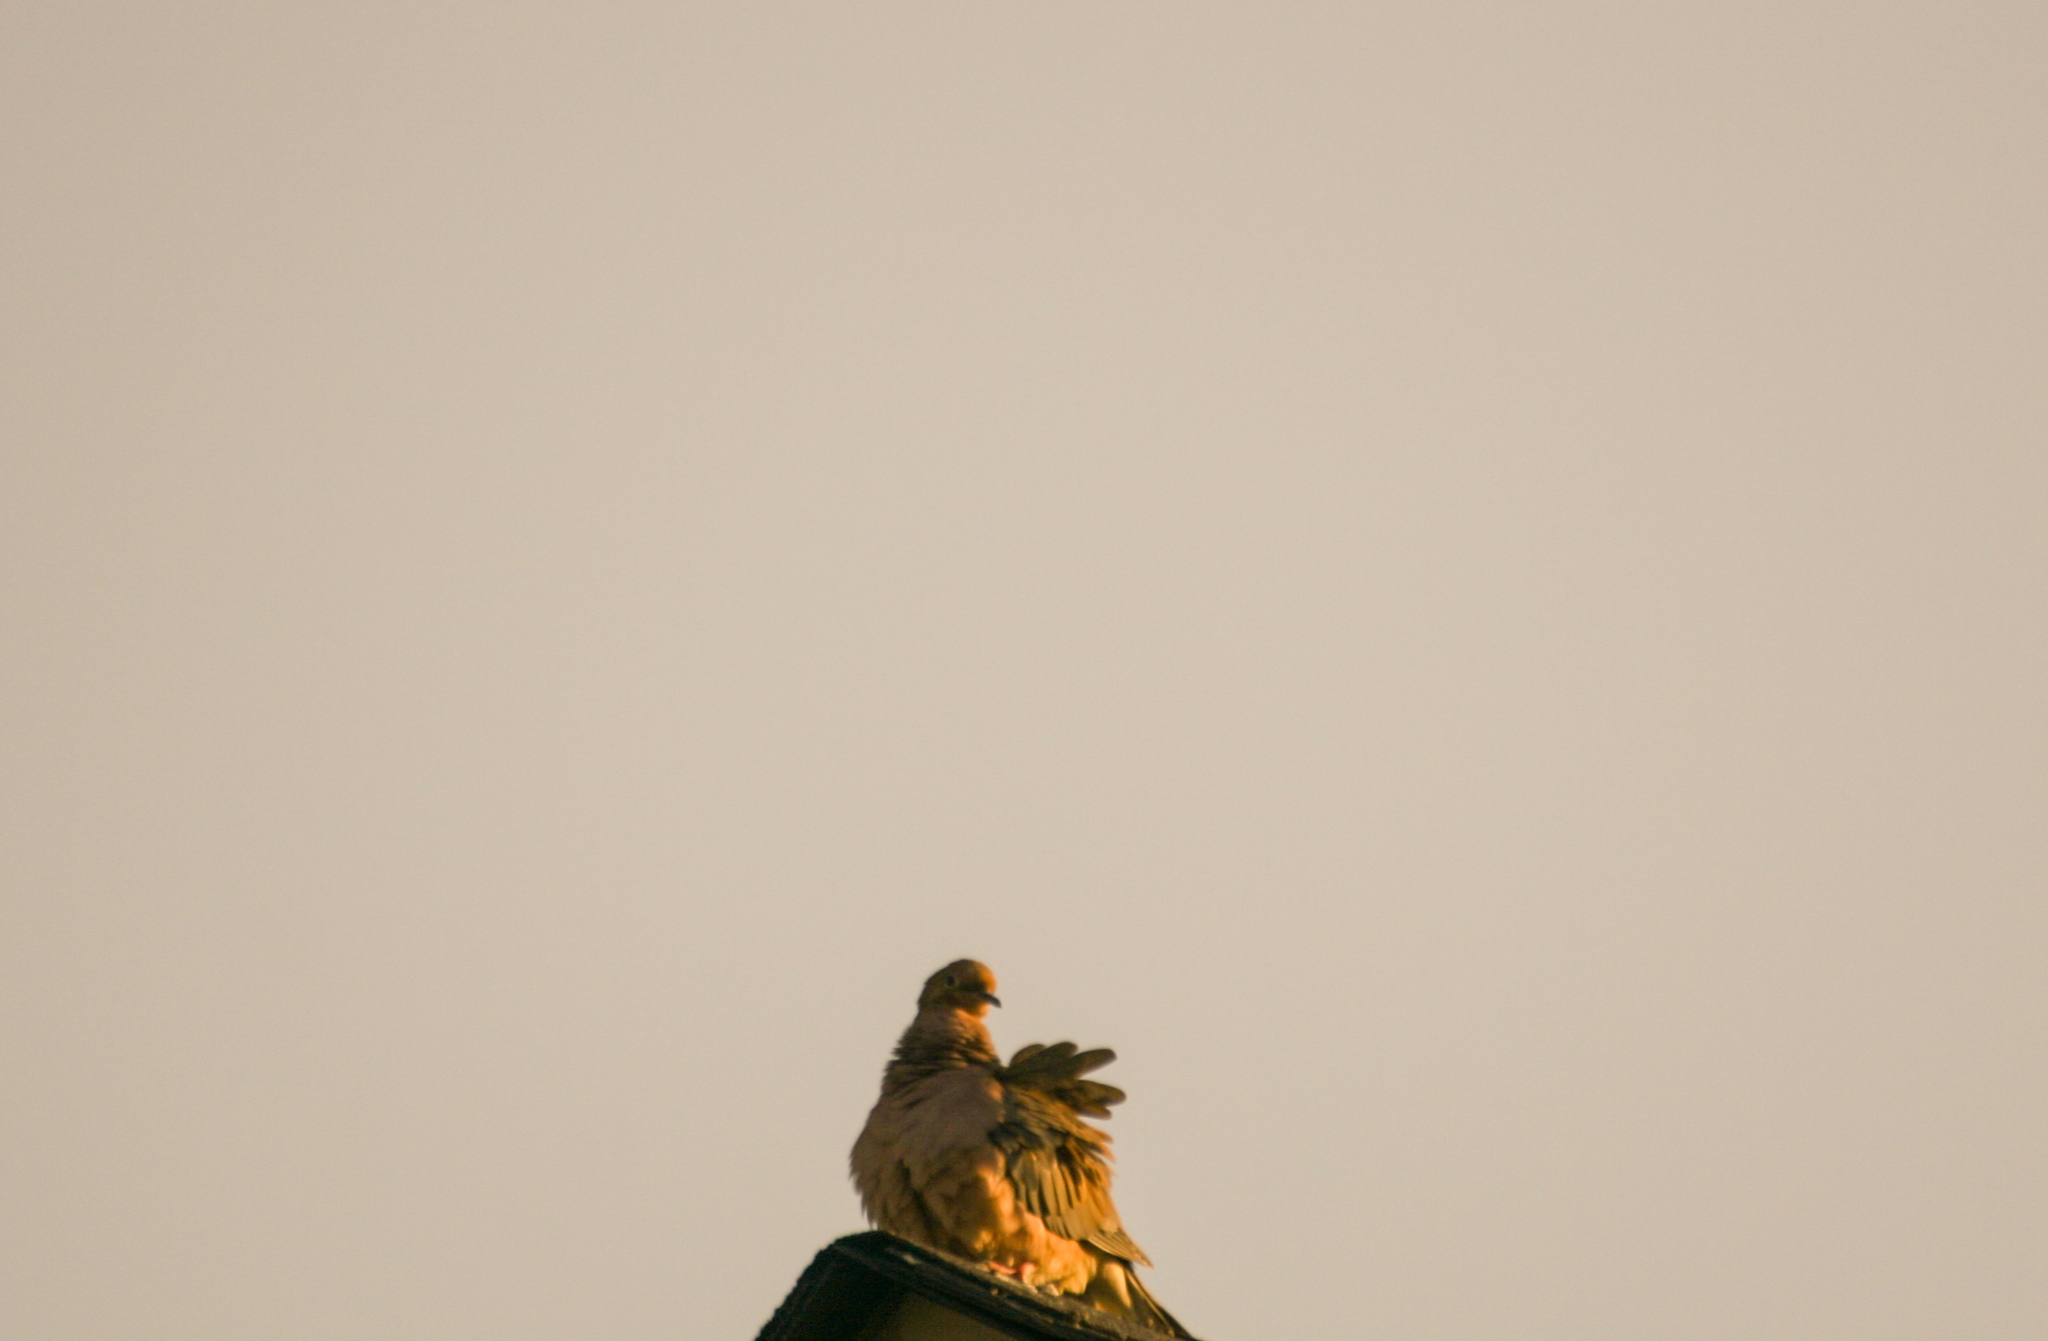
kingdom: Animalia
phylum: Chordata
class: Aves
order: Columbiformes
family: Columbidae
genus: Zenaida
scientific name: Zenaida macroura
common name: Mourning dove
